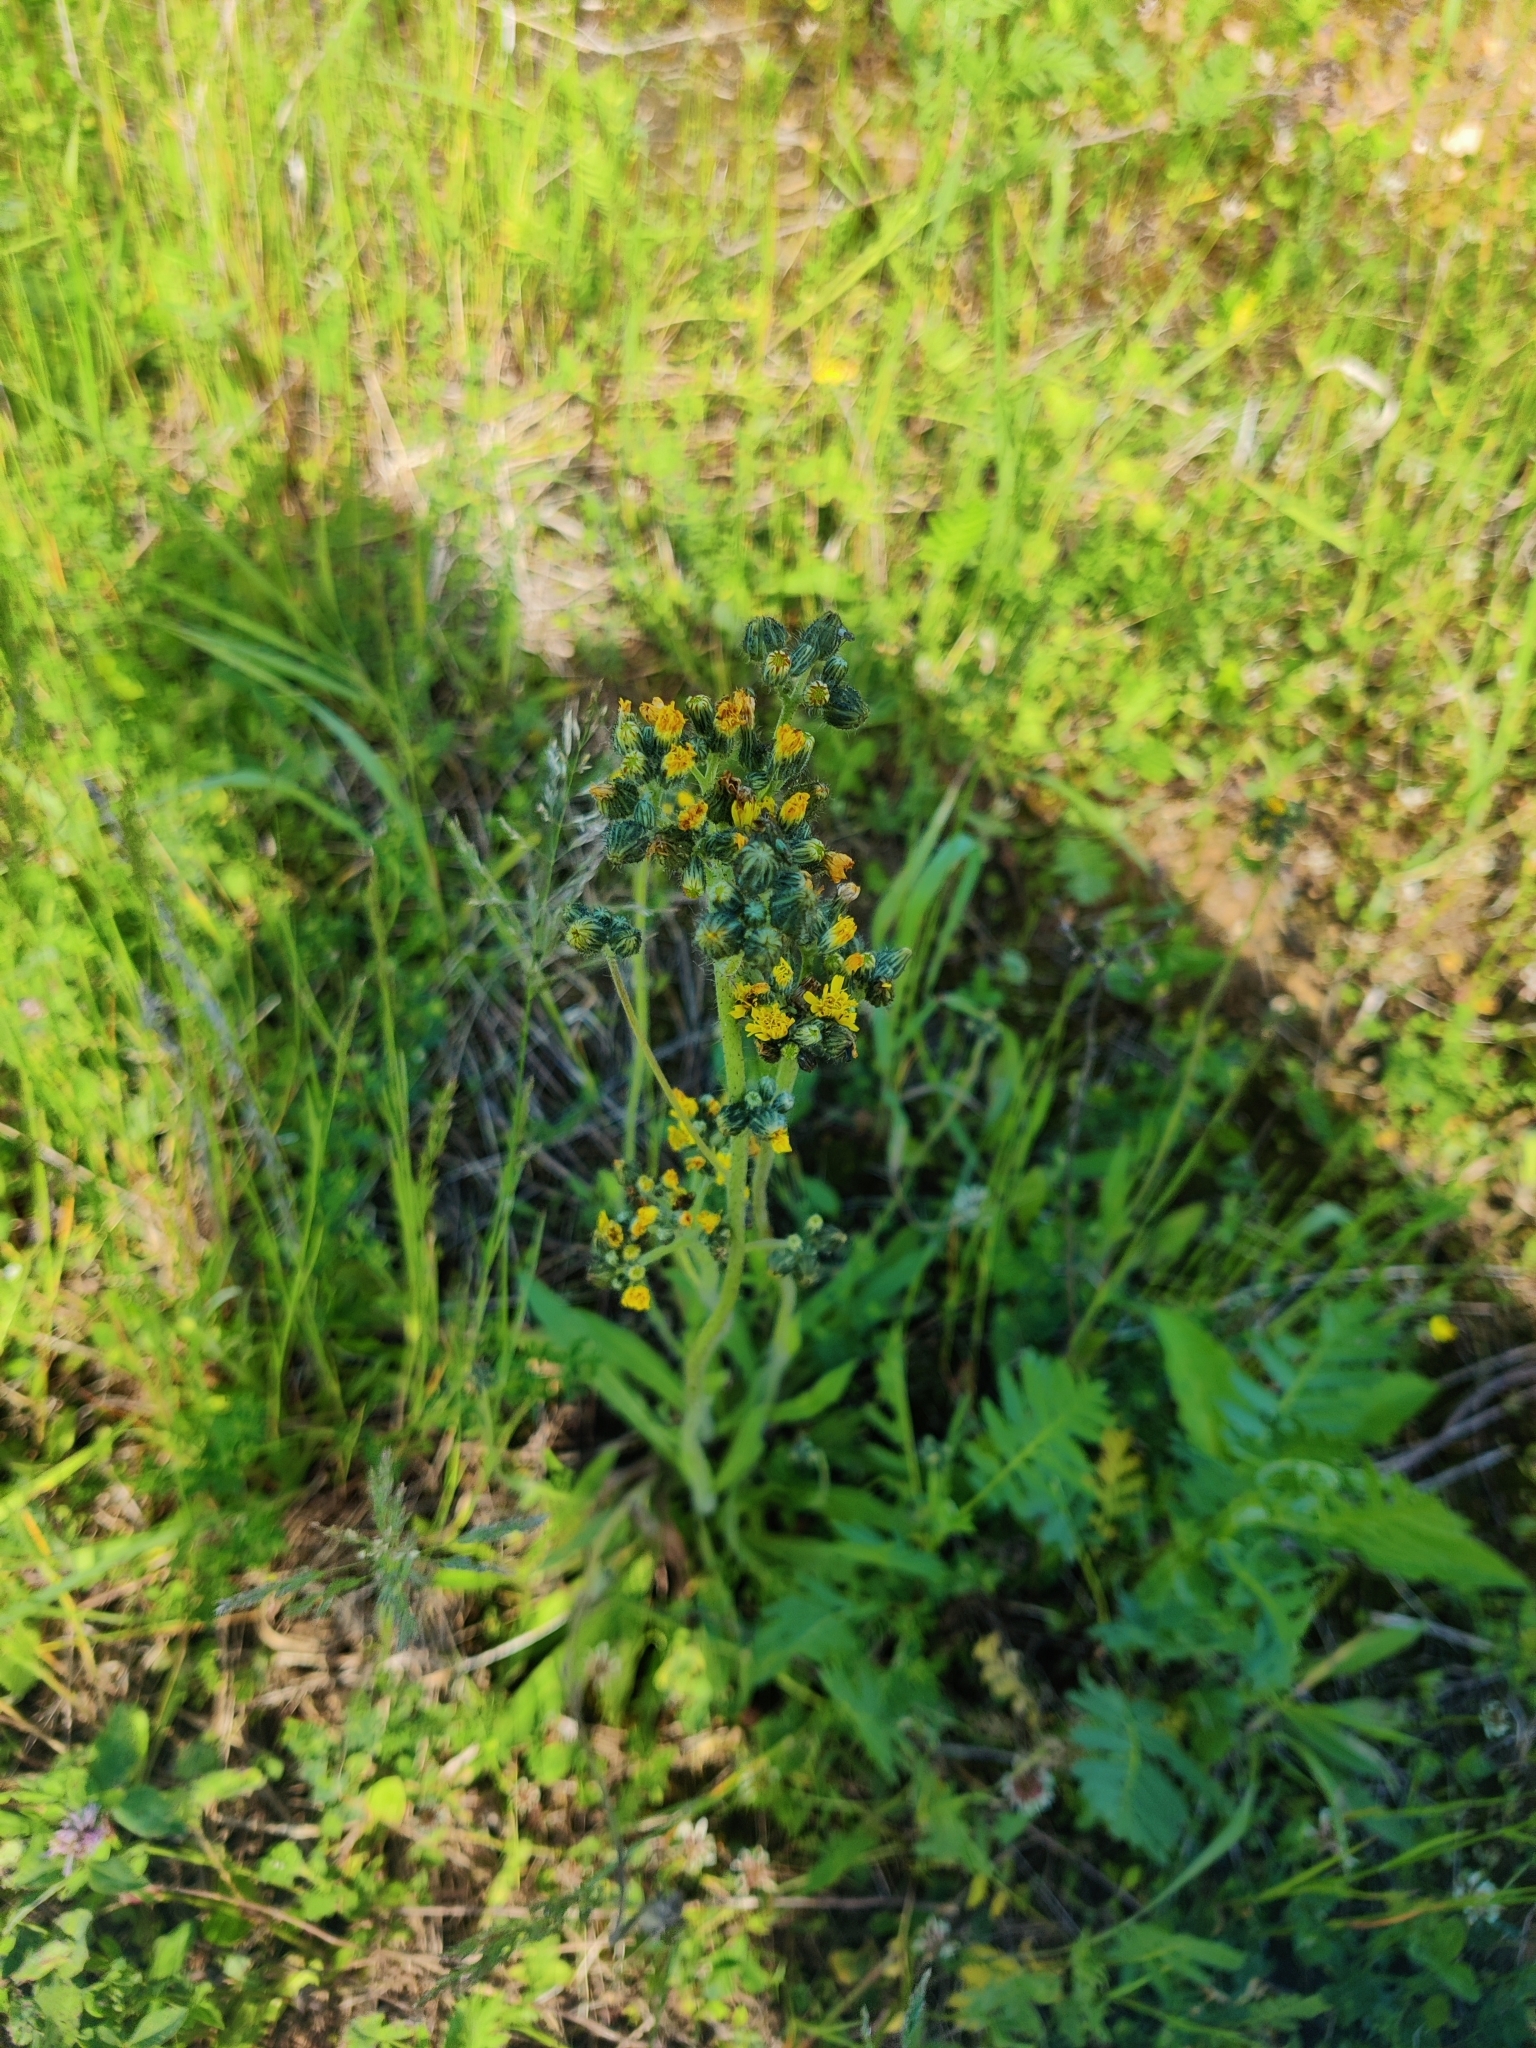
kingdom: Plantae
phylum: Tracheophyta
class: Magnoliopsida
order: Asterales
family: Asteraceae
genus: Pilosella
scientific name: Pilosella
